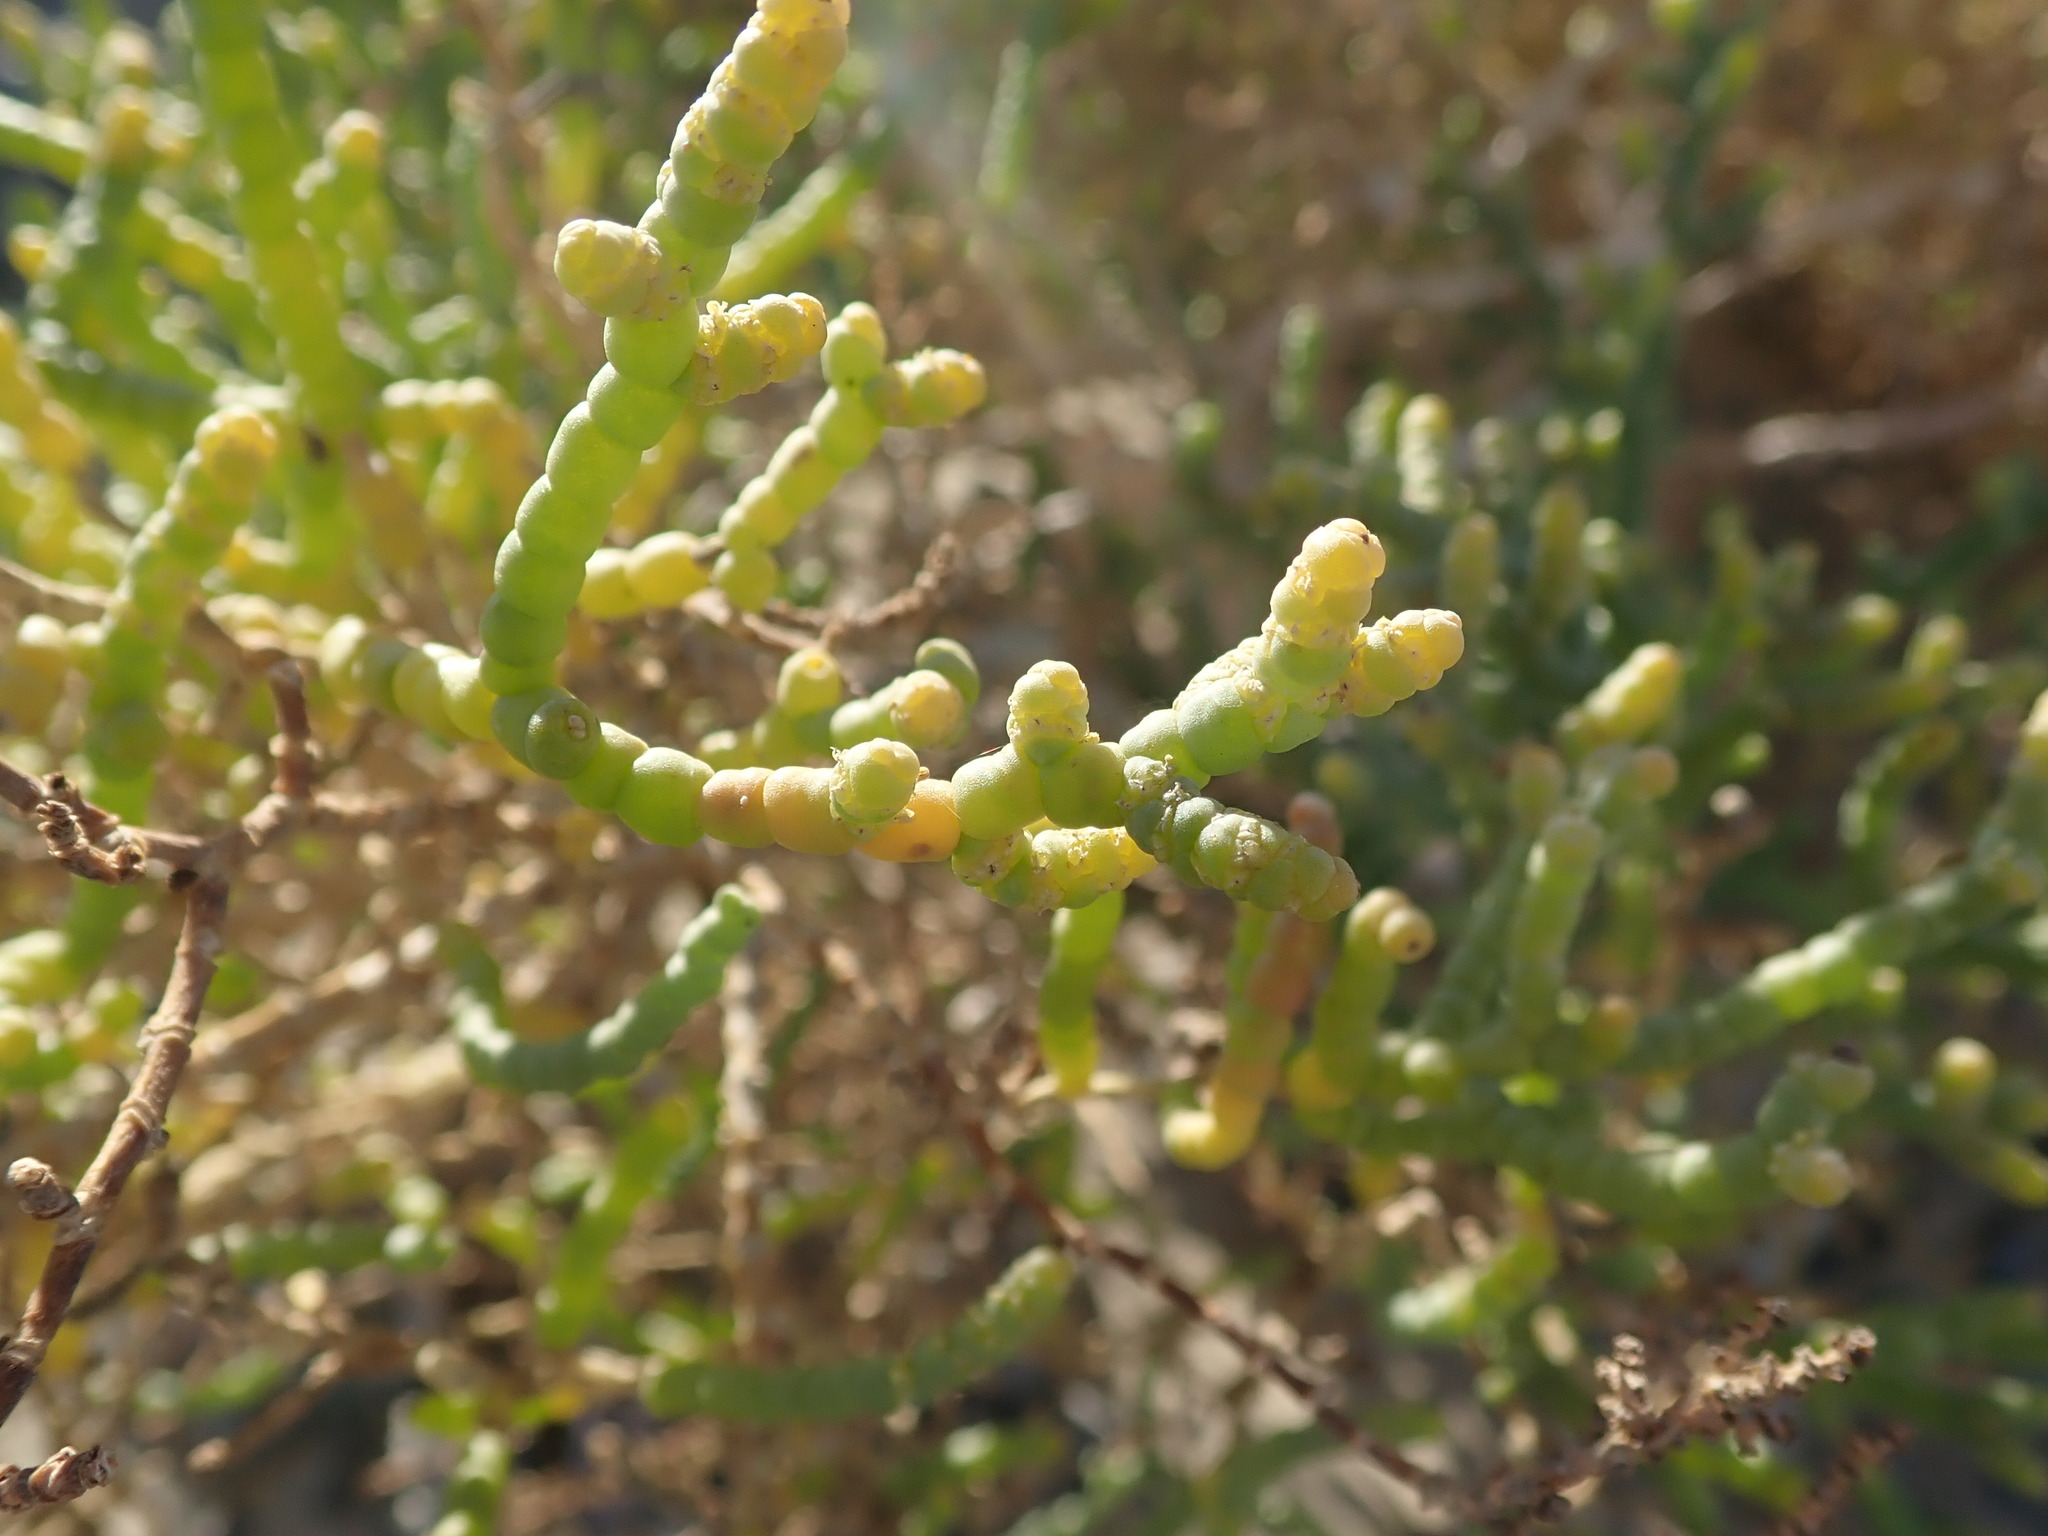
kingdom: Plantae
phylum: Tracheophyta
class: Magnoliopsida
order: Caryophyllales
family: Amaranthaceae
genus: Allenrolfea
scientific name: Allenrolfea occidentalis
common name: Iodine-bush
